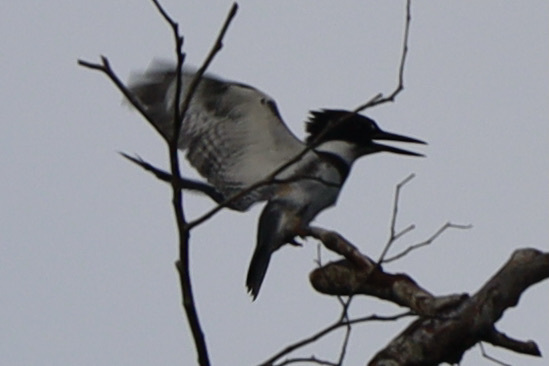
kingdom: Animalia
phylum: Chordata
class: Aves
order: Coraciiformes
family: Alcedinidae
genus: Megaceryle
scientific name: Megaceryle alcyon
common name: Belted kingfisher
